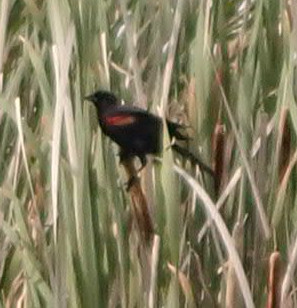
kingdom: Animalia
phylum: Chordata
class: Aves
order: Passeriformes
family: Icteridae
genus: Agelaius
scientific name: Agelaius phoeniceus
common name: Red-winged blackbird
